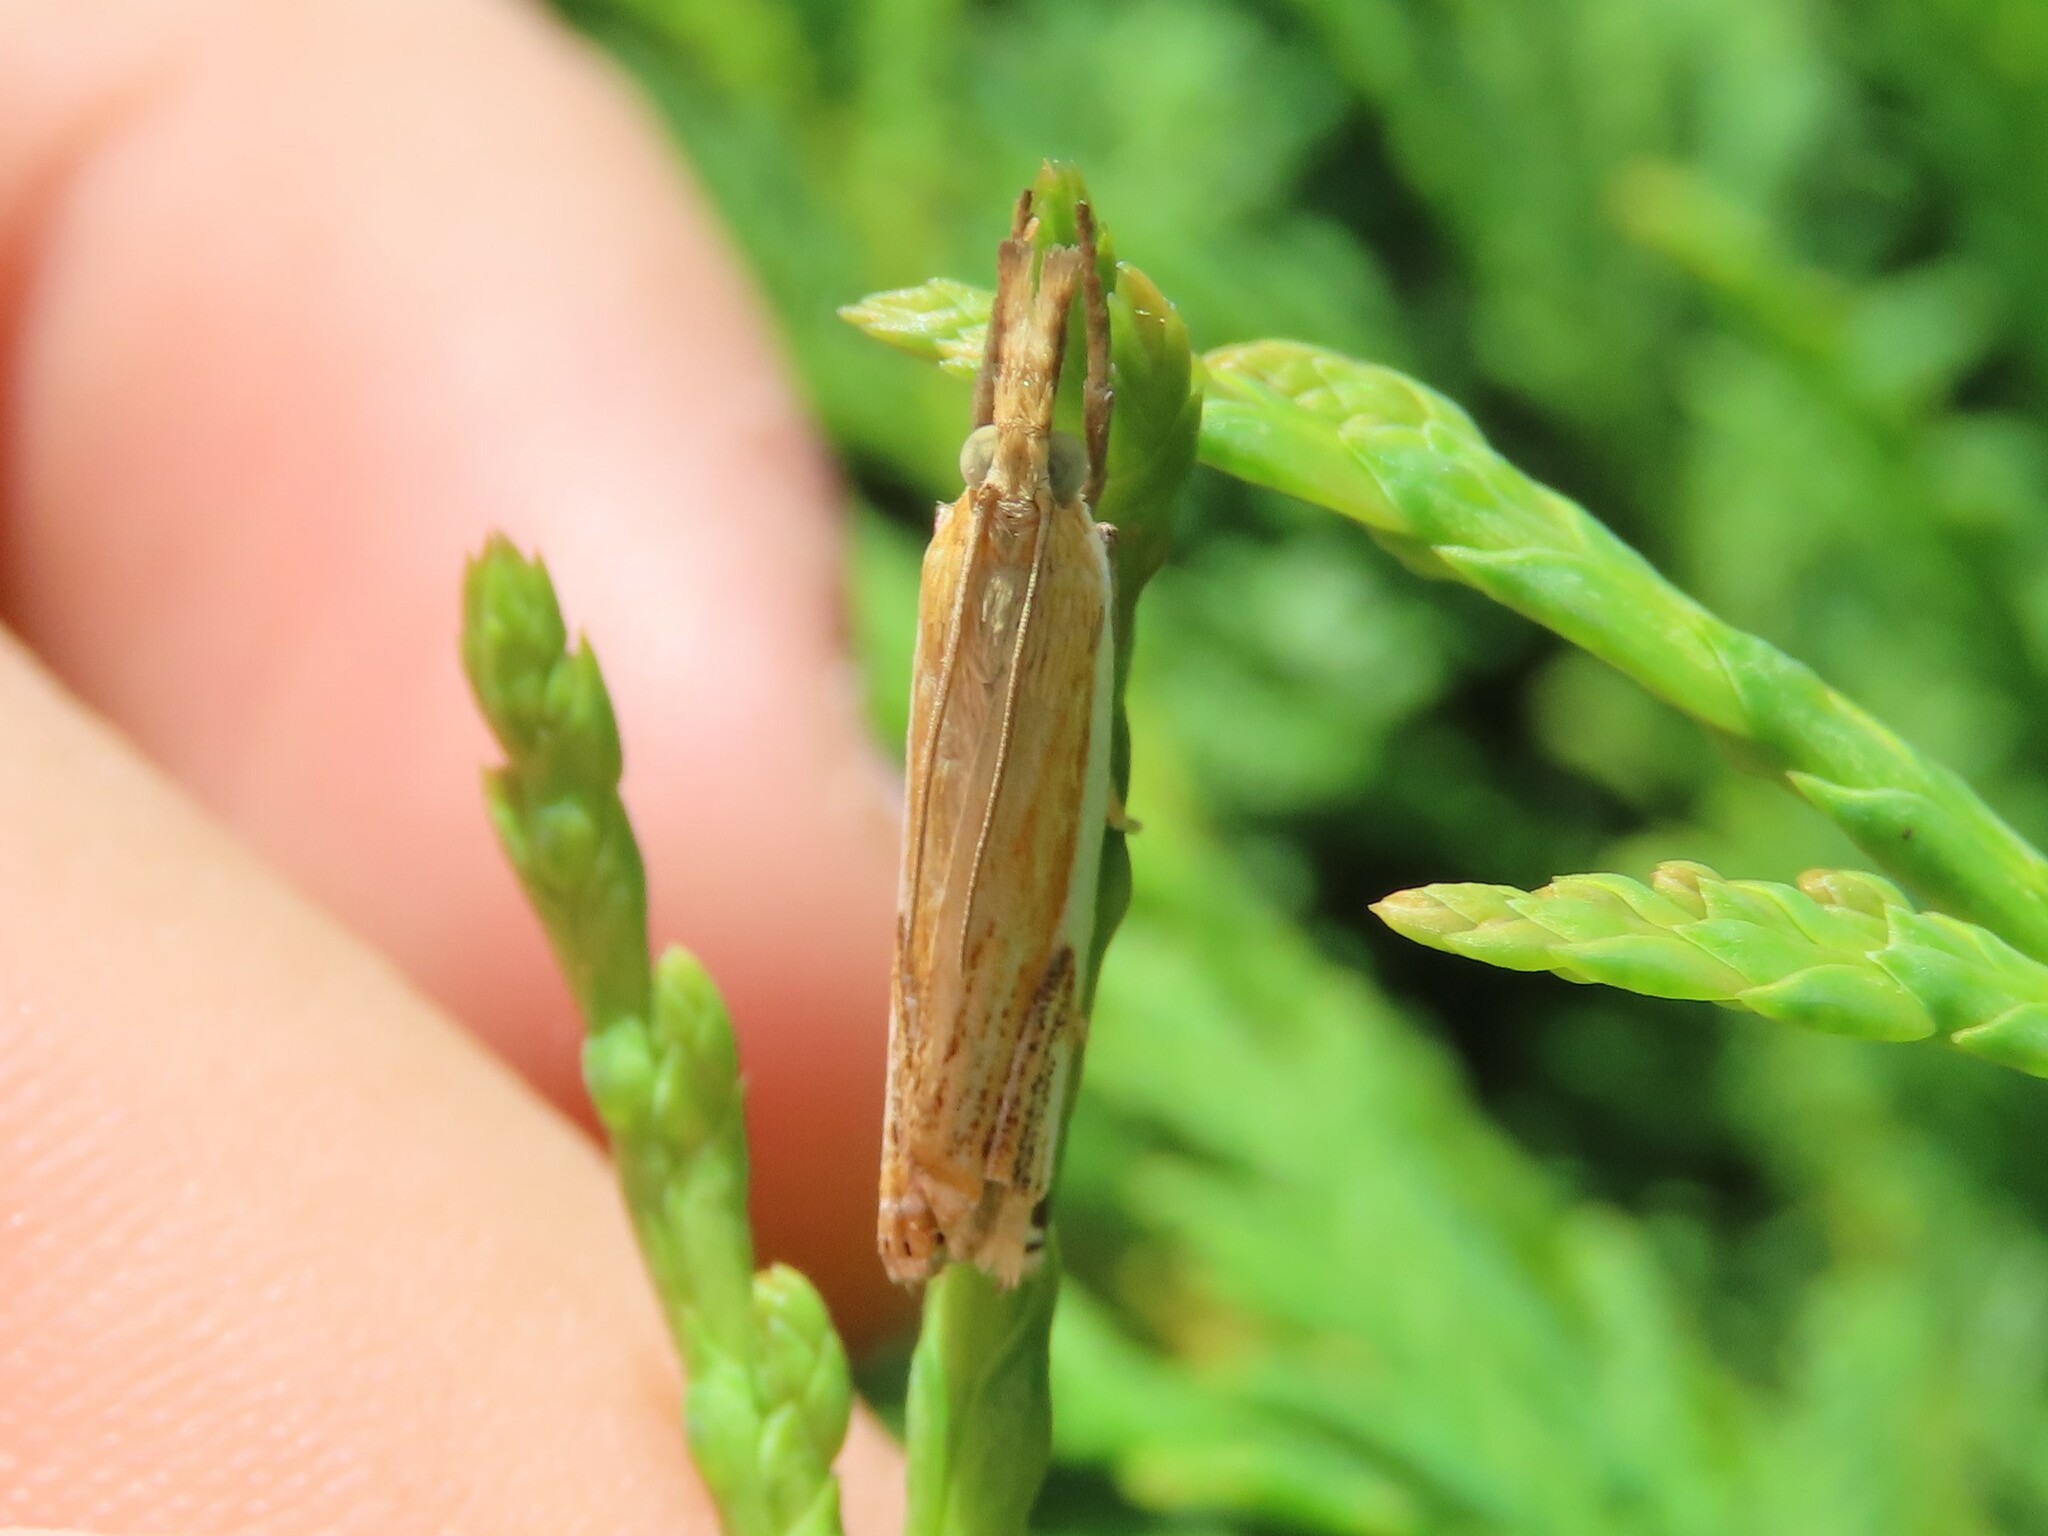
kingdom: Animalia
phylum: Arthropoda
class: Insecta
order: Lepidoptera
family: Crambidae
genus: Crambus
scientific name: Crambus agitatellus
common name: Double-banded grass-veneer
